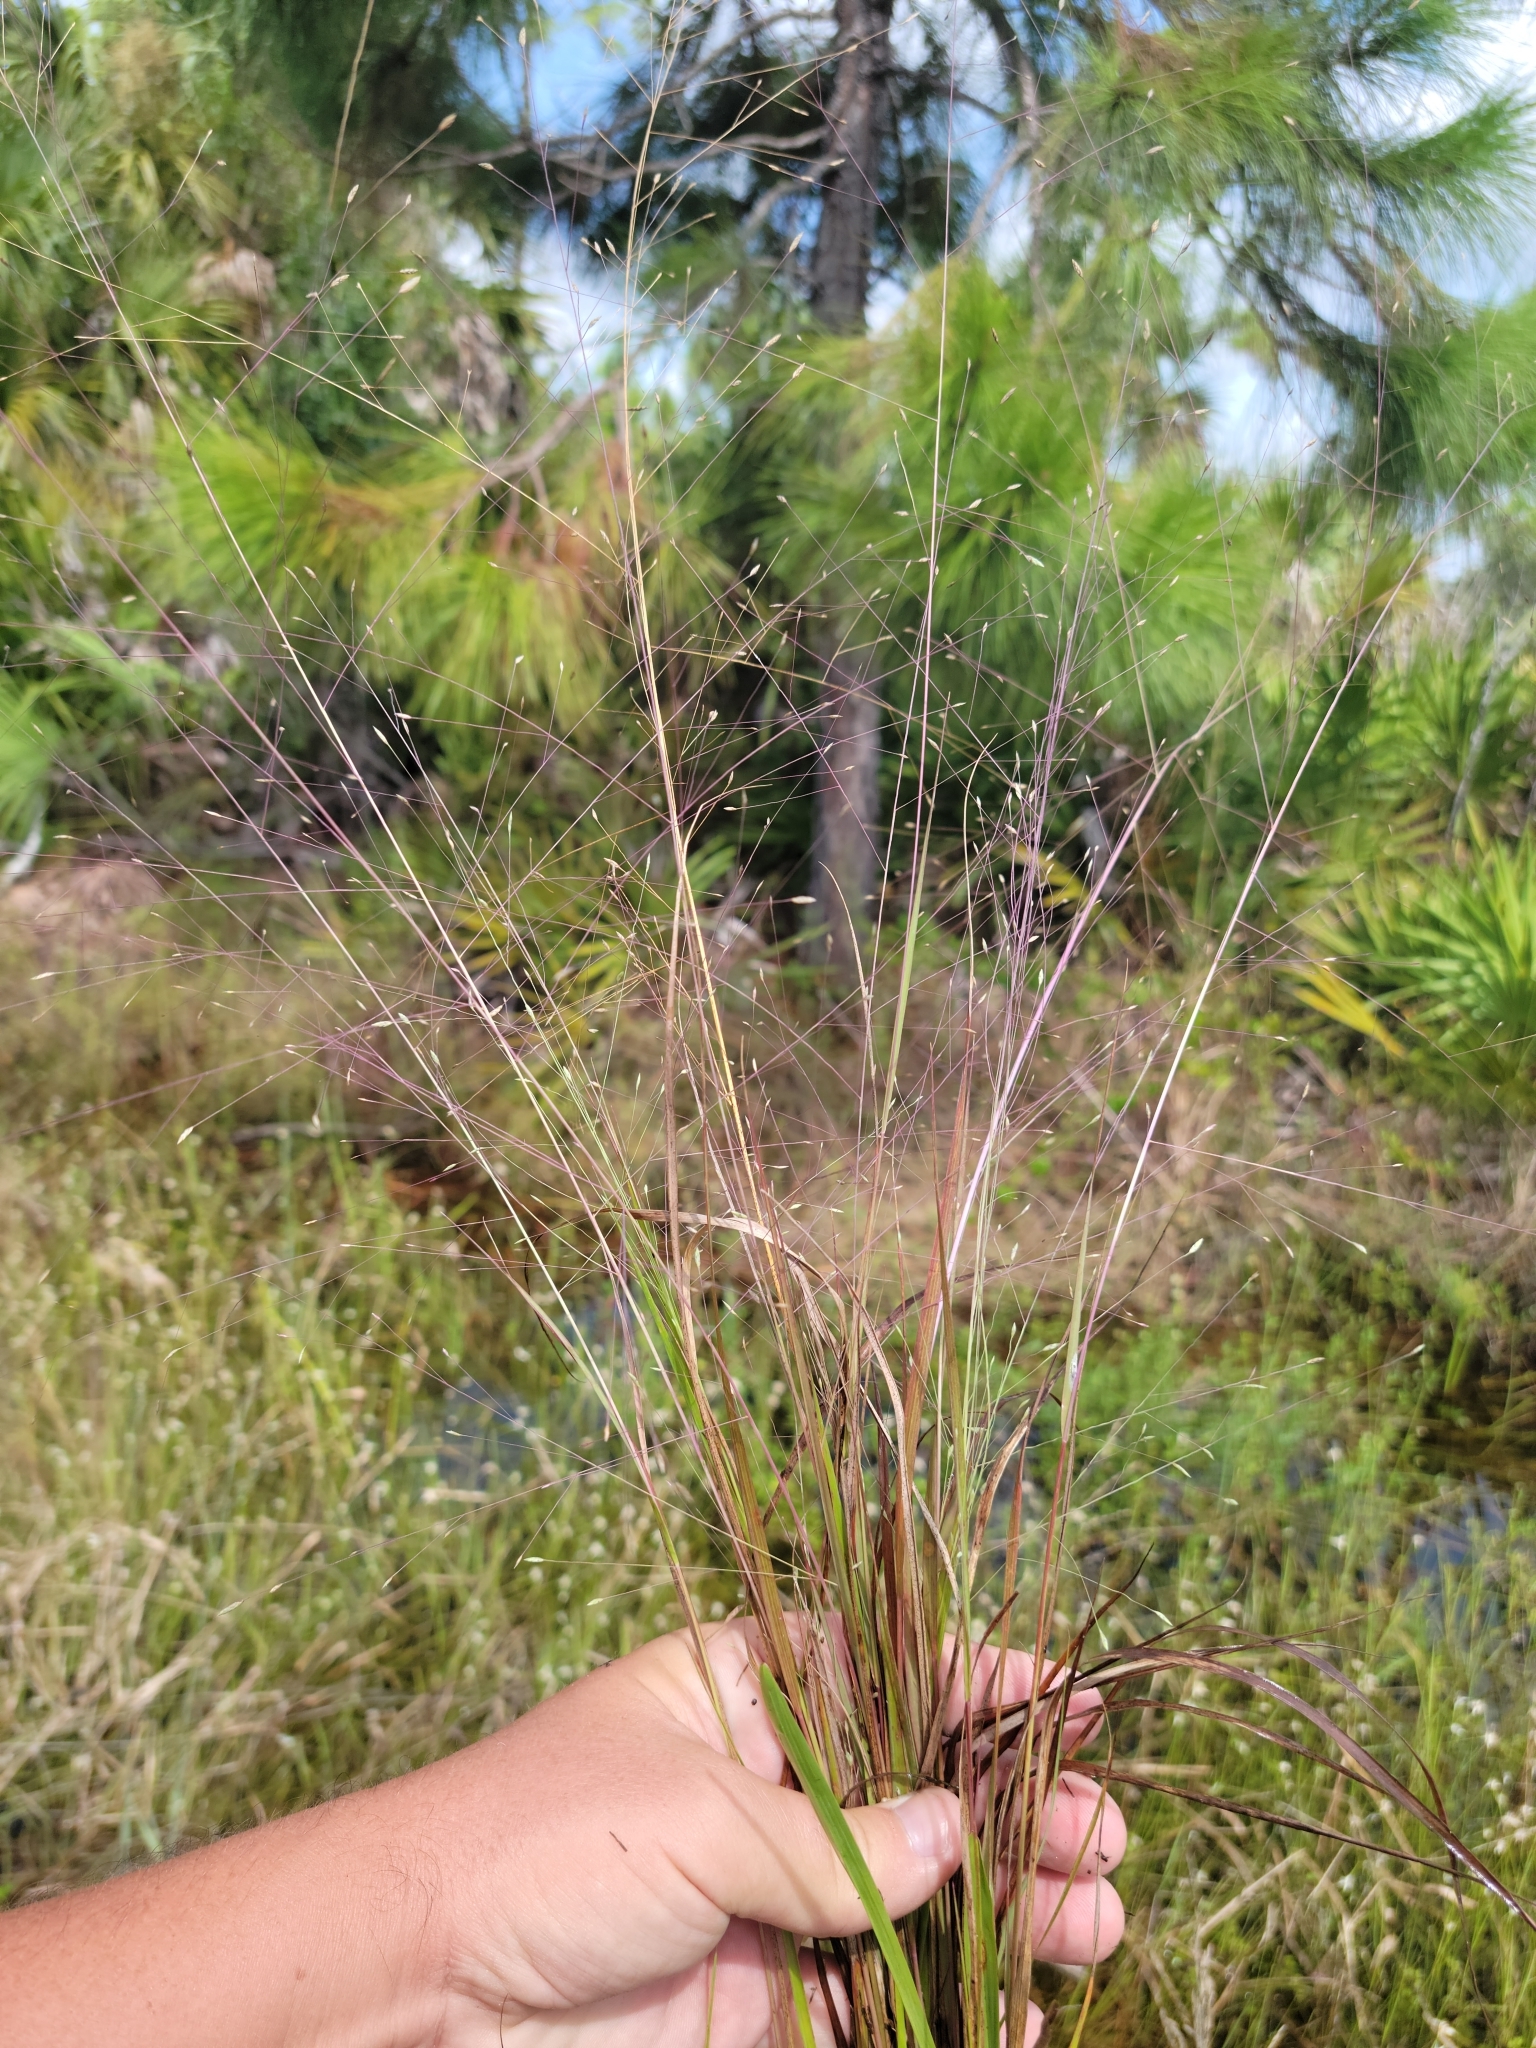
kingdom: Plantae
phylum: Tracheophyta
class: Liliopsida
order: Poales
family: Poaceae
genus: Eragrostis
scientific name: Eragrostis elliottii
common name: Elliott's love grass
